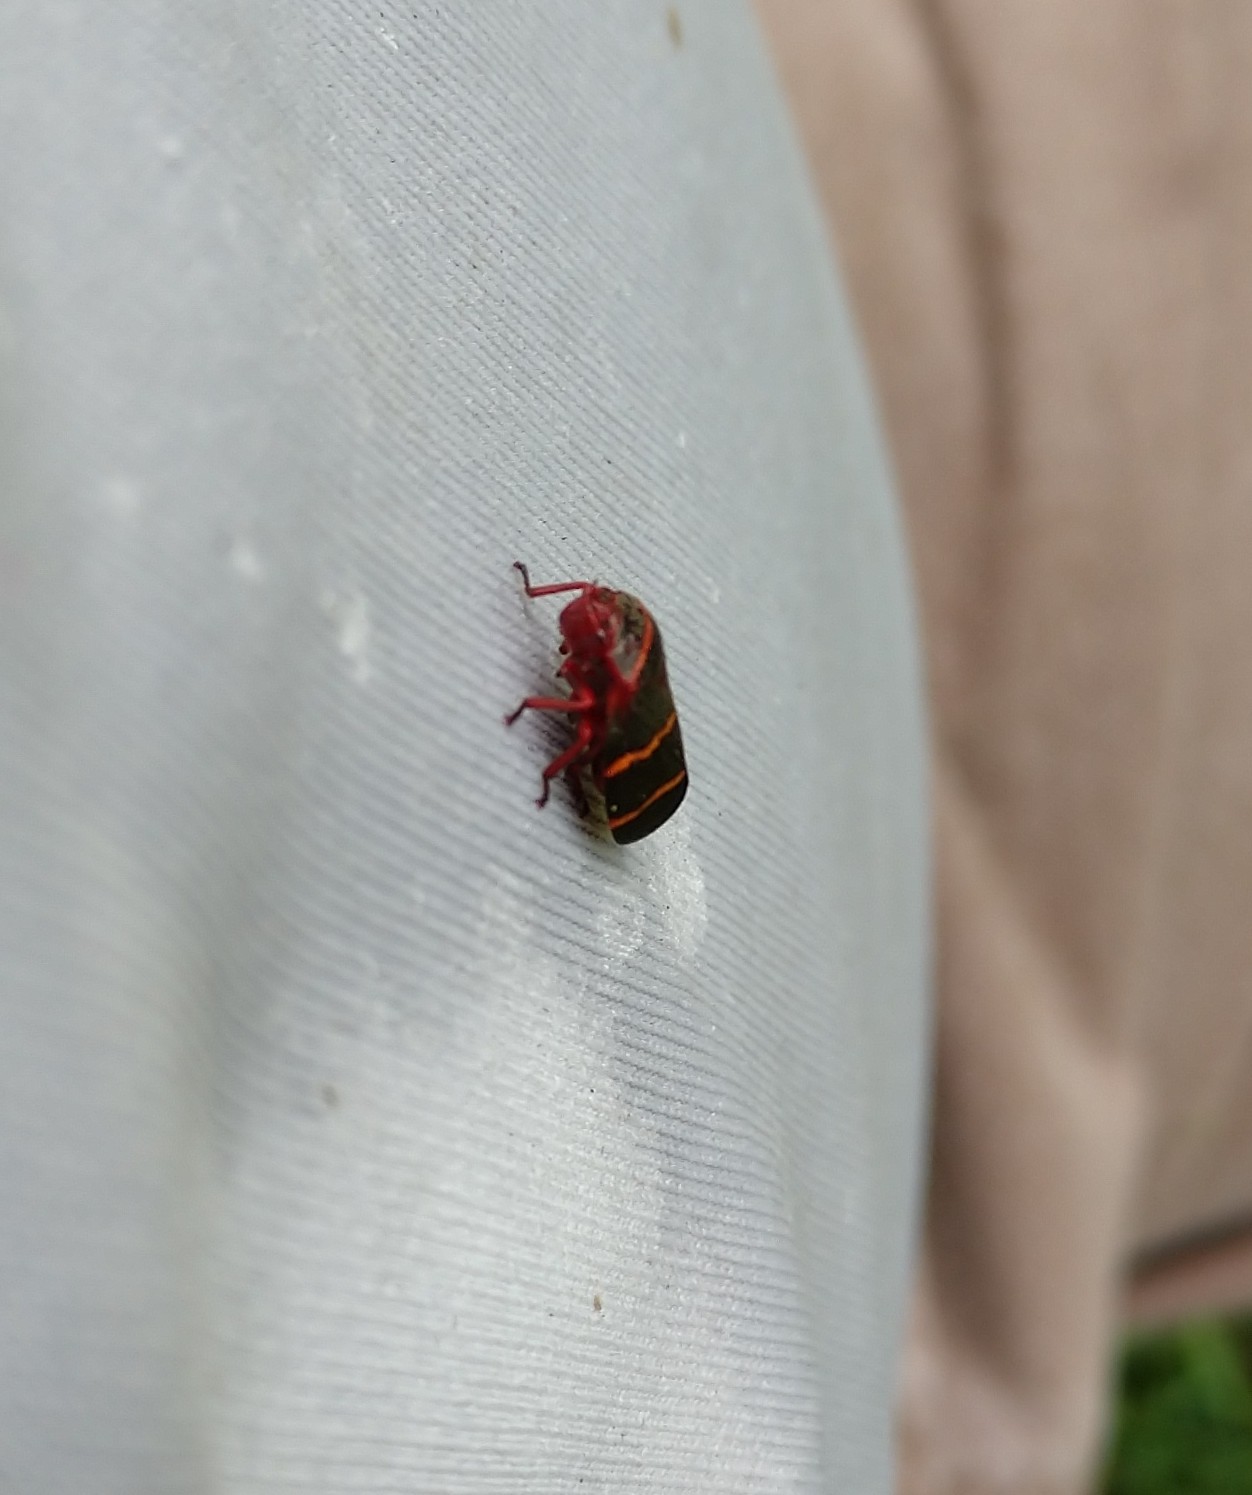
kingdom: Animalia
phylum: Arthropoda
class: Insecta
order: Hemiptera
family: Cercopidae
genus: Prosapia
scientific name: Prosapia bicincta
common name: Twolined spittlebug
